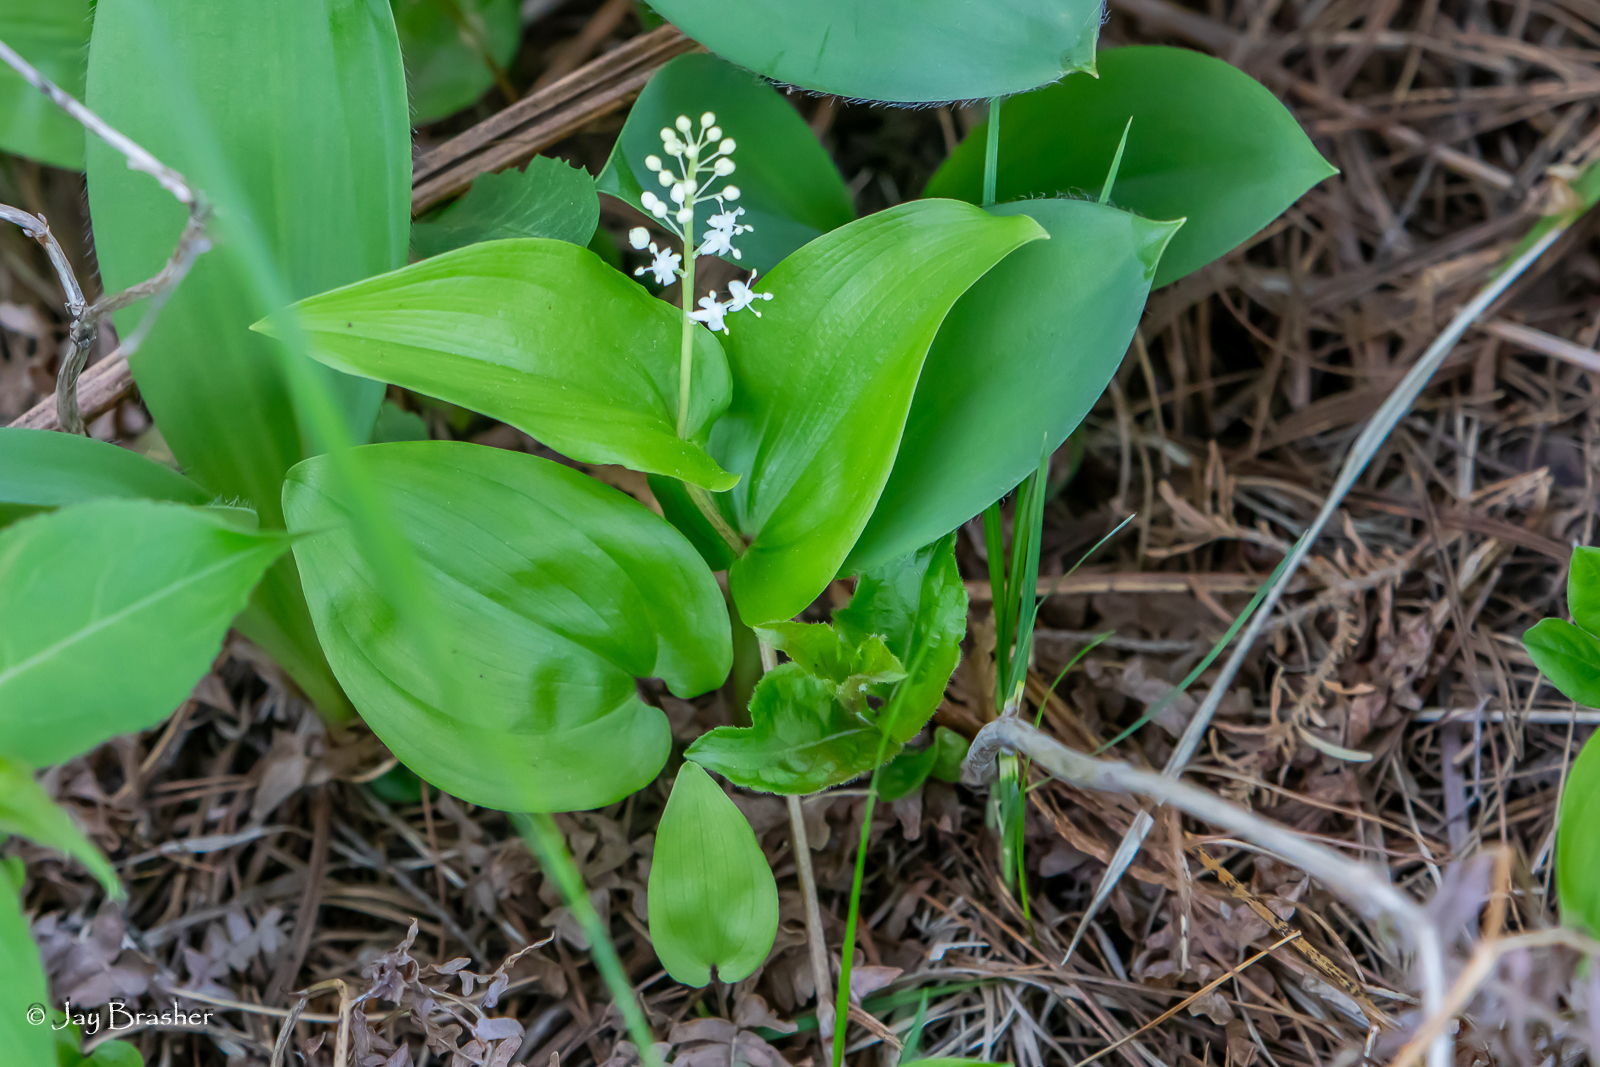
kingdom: Plantae
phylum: Tracheophyta
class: Liliopsida
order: Asparagales
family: Asparagaceae
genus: Maianthemum
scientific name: Maianthemum canadense
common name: False lily-of-the-valley
